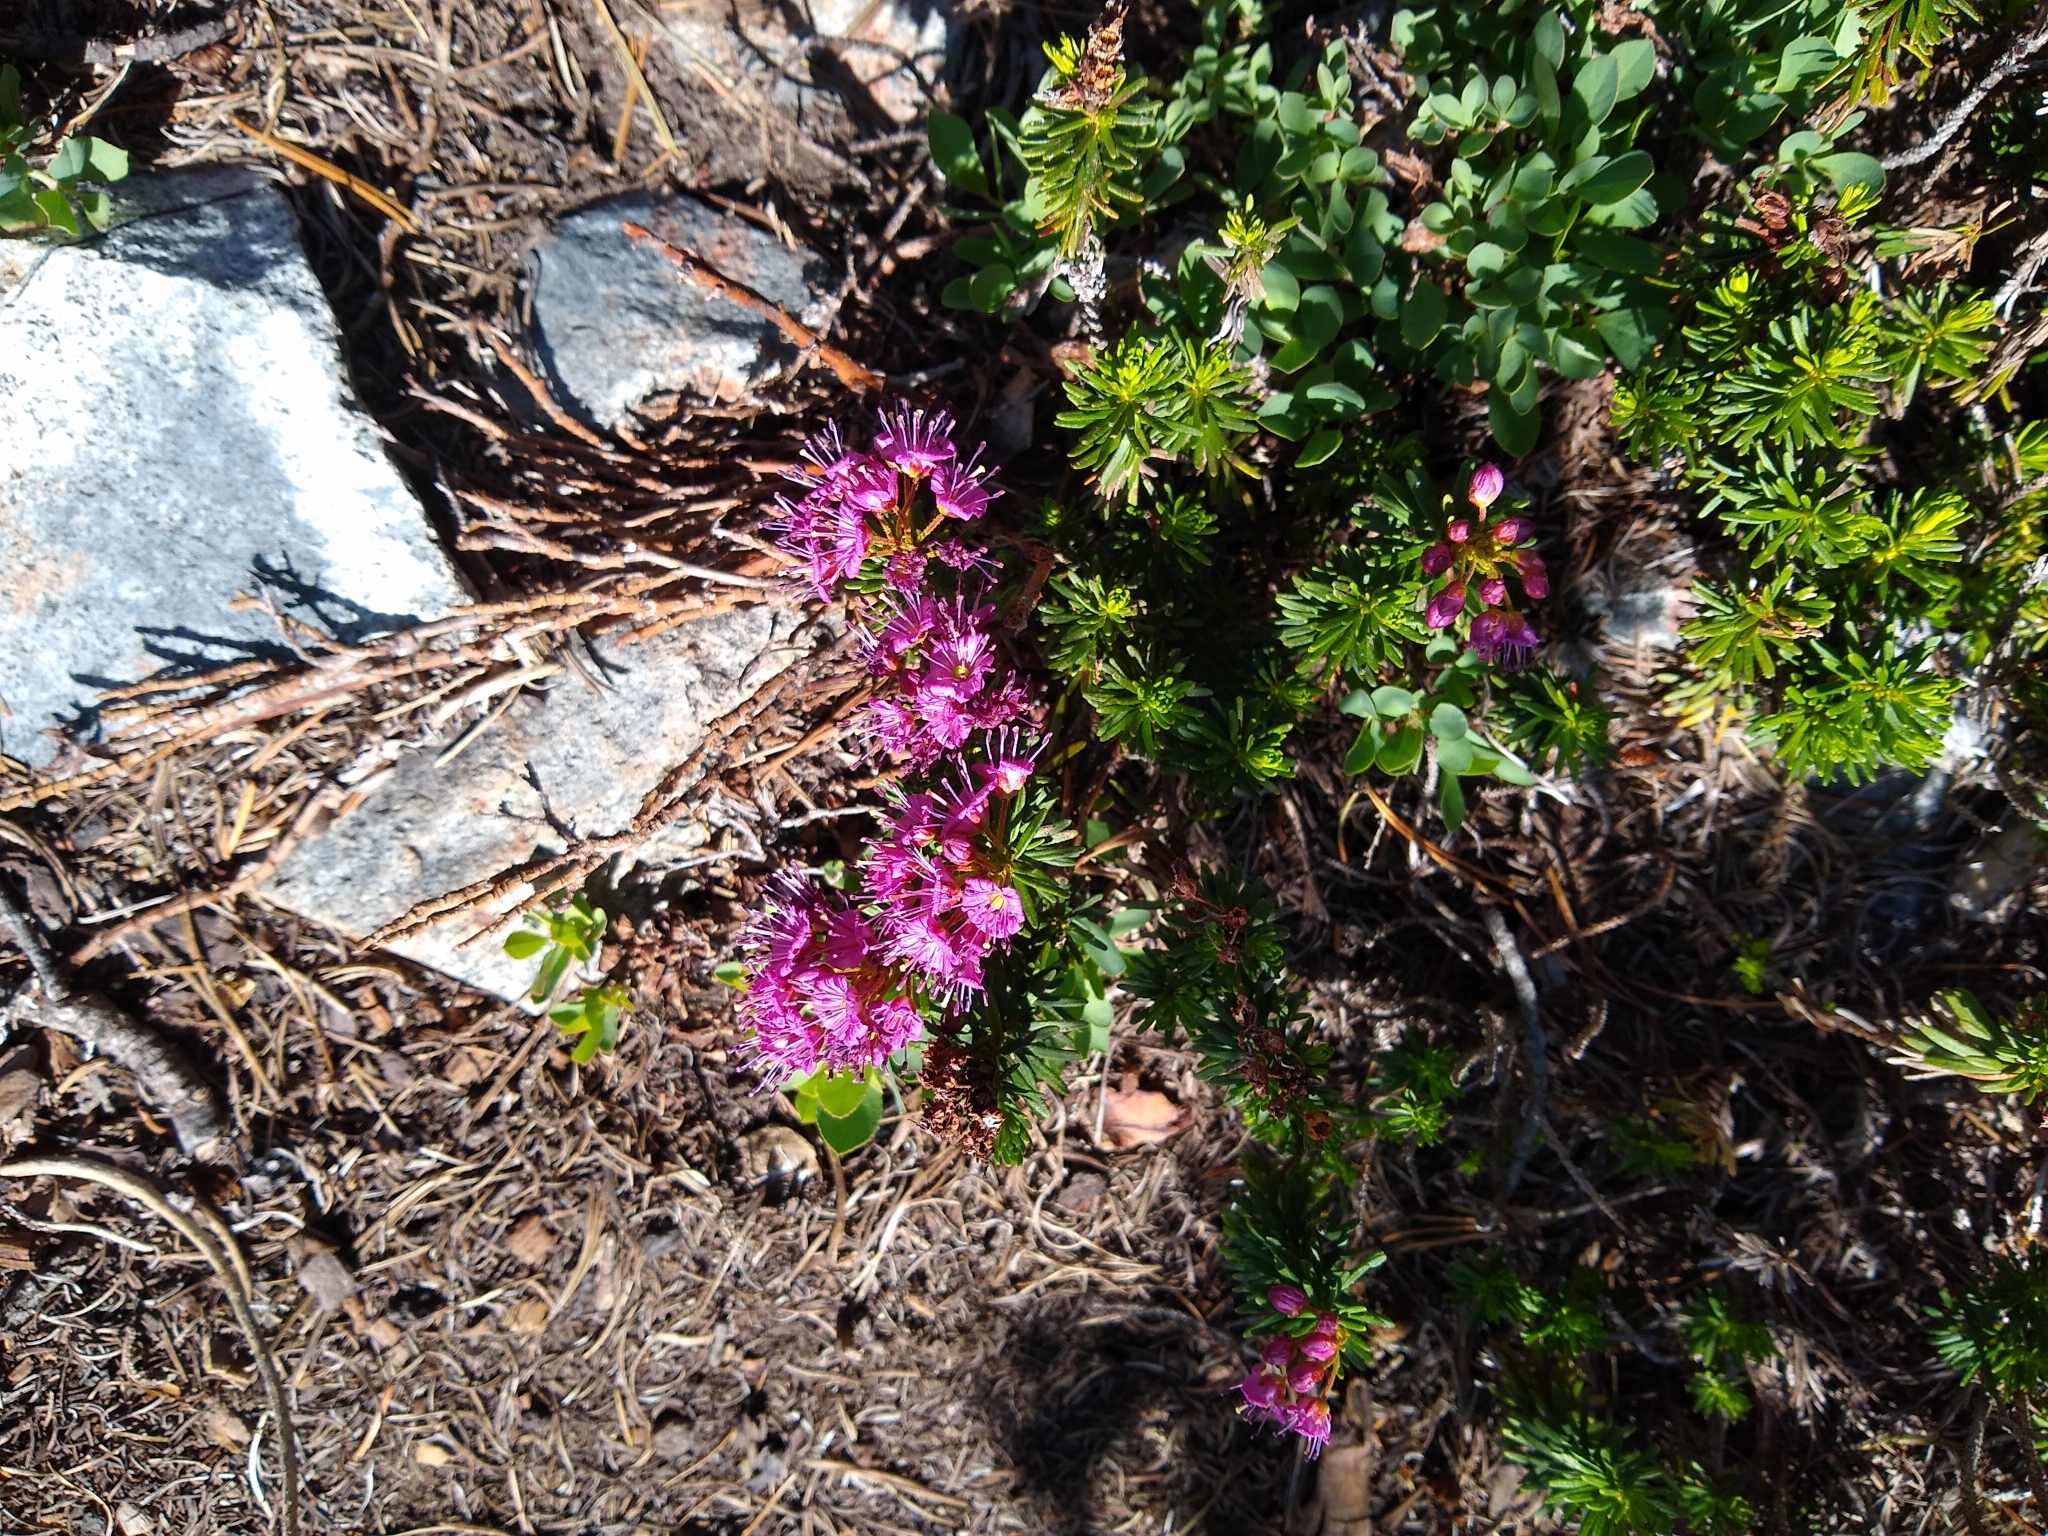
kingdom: Plantae
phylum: Tracheophyta
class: Magnoliopsida
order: Ericales
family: Ericaceae
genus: Phyllodoce
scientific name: Phyllodoce breweri
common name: Brewer's mountain-heather
